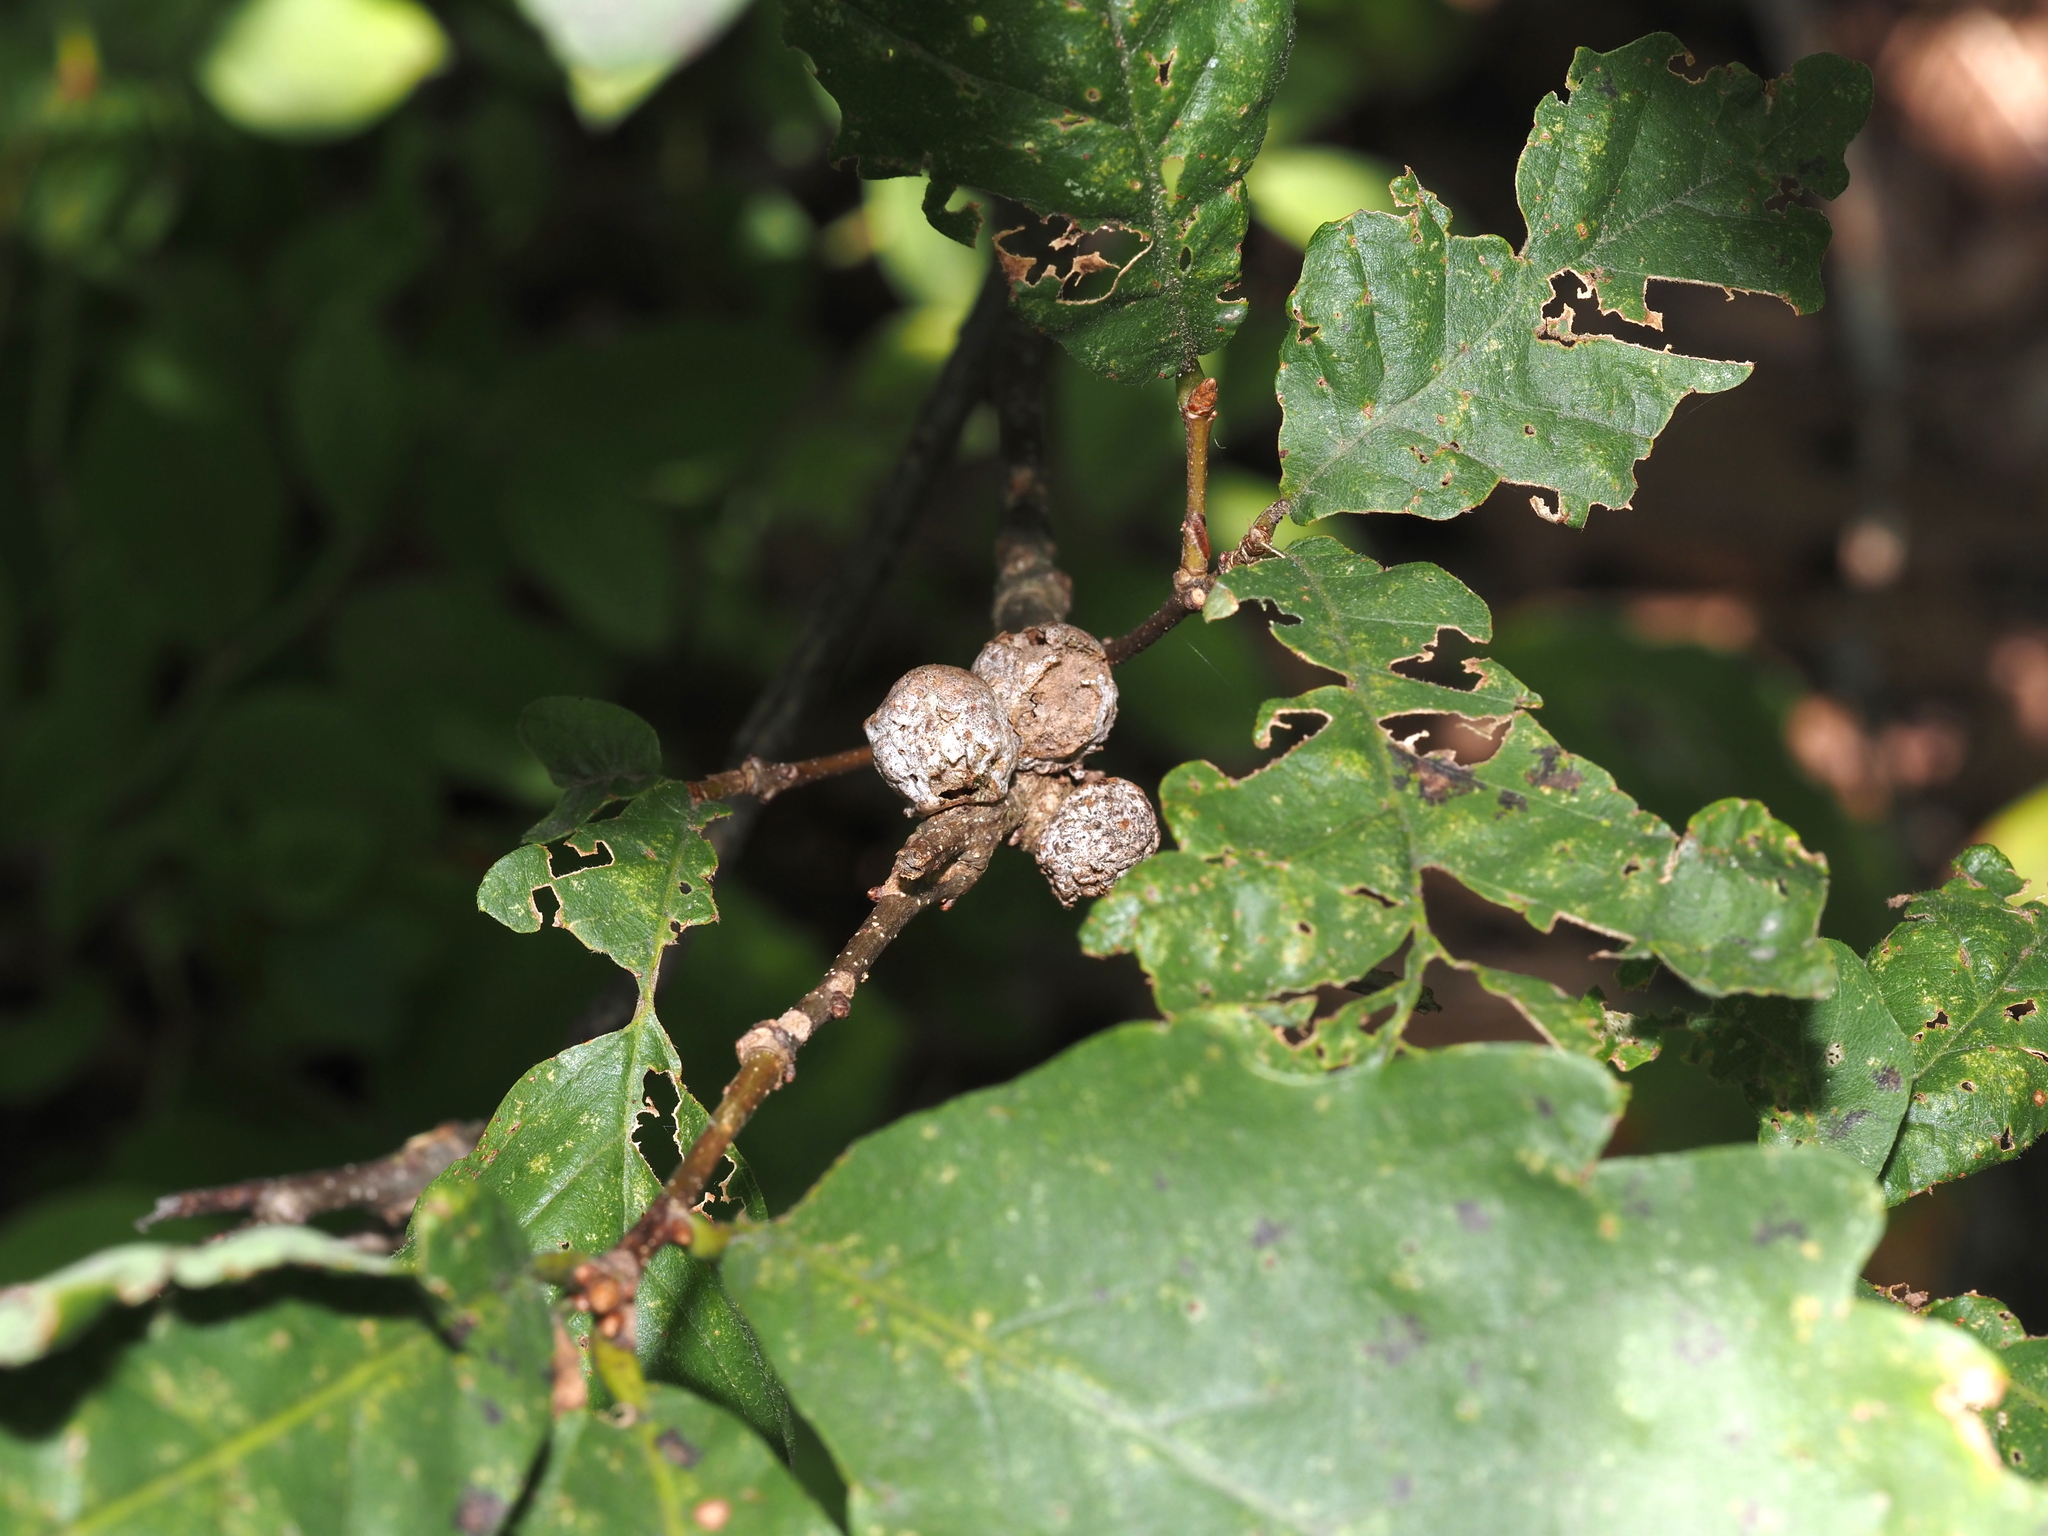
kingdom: Animalia
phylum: Arthropoda
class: Insecta
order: Hymenoptera
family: Cynipidae
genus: Disholcaspis
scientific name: Disholcaspis quercusglobulus
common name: Round bullet gall wasp
